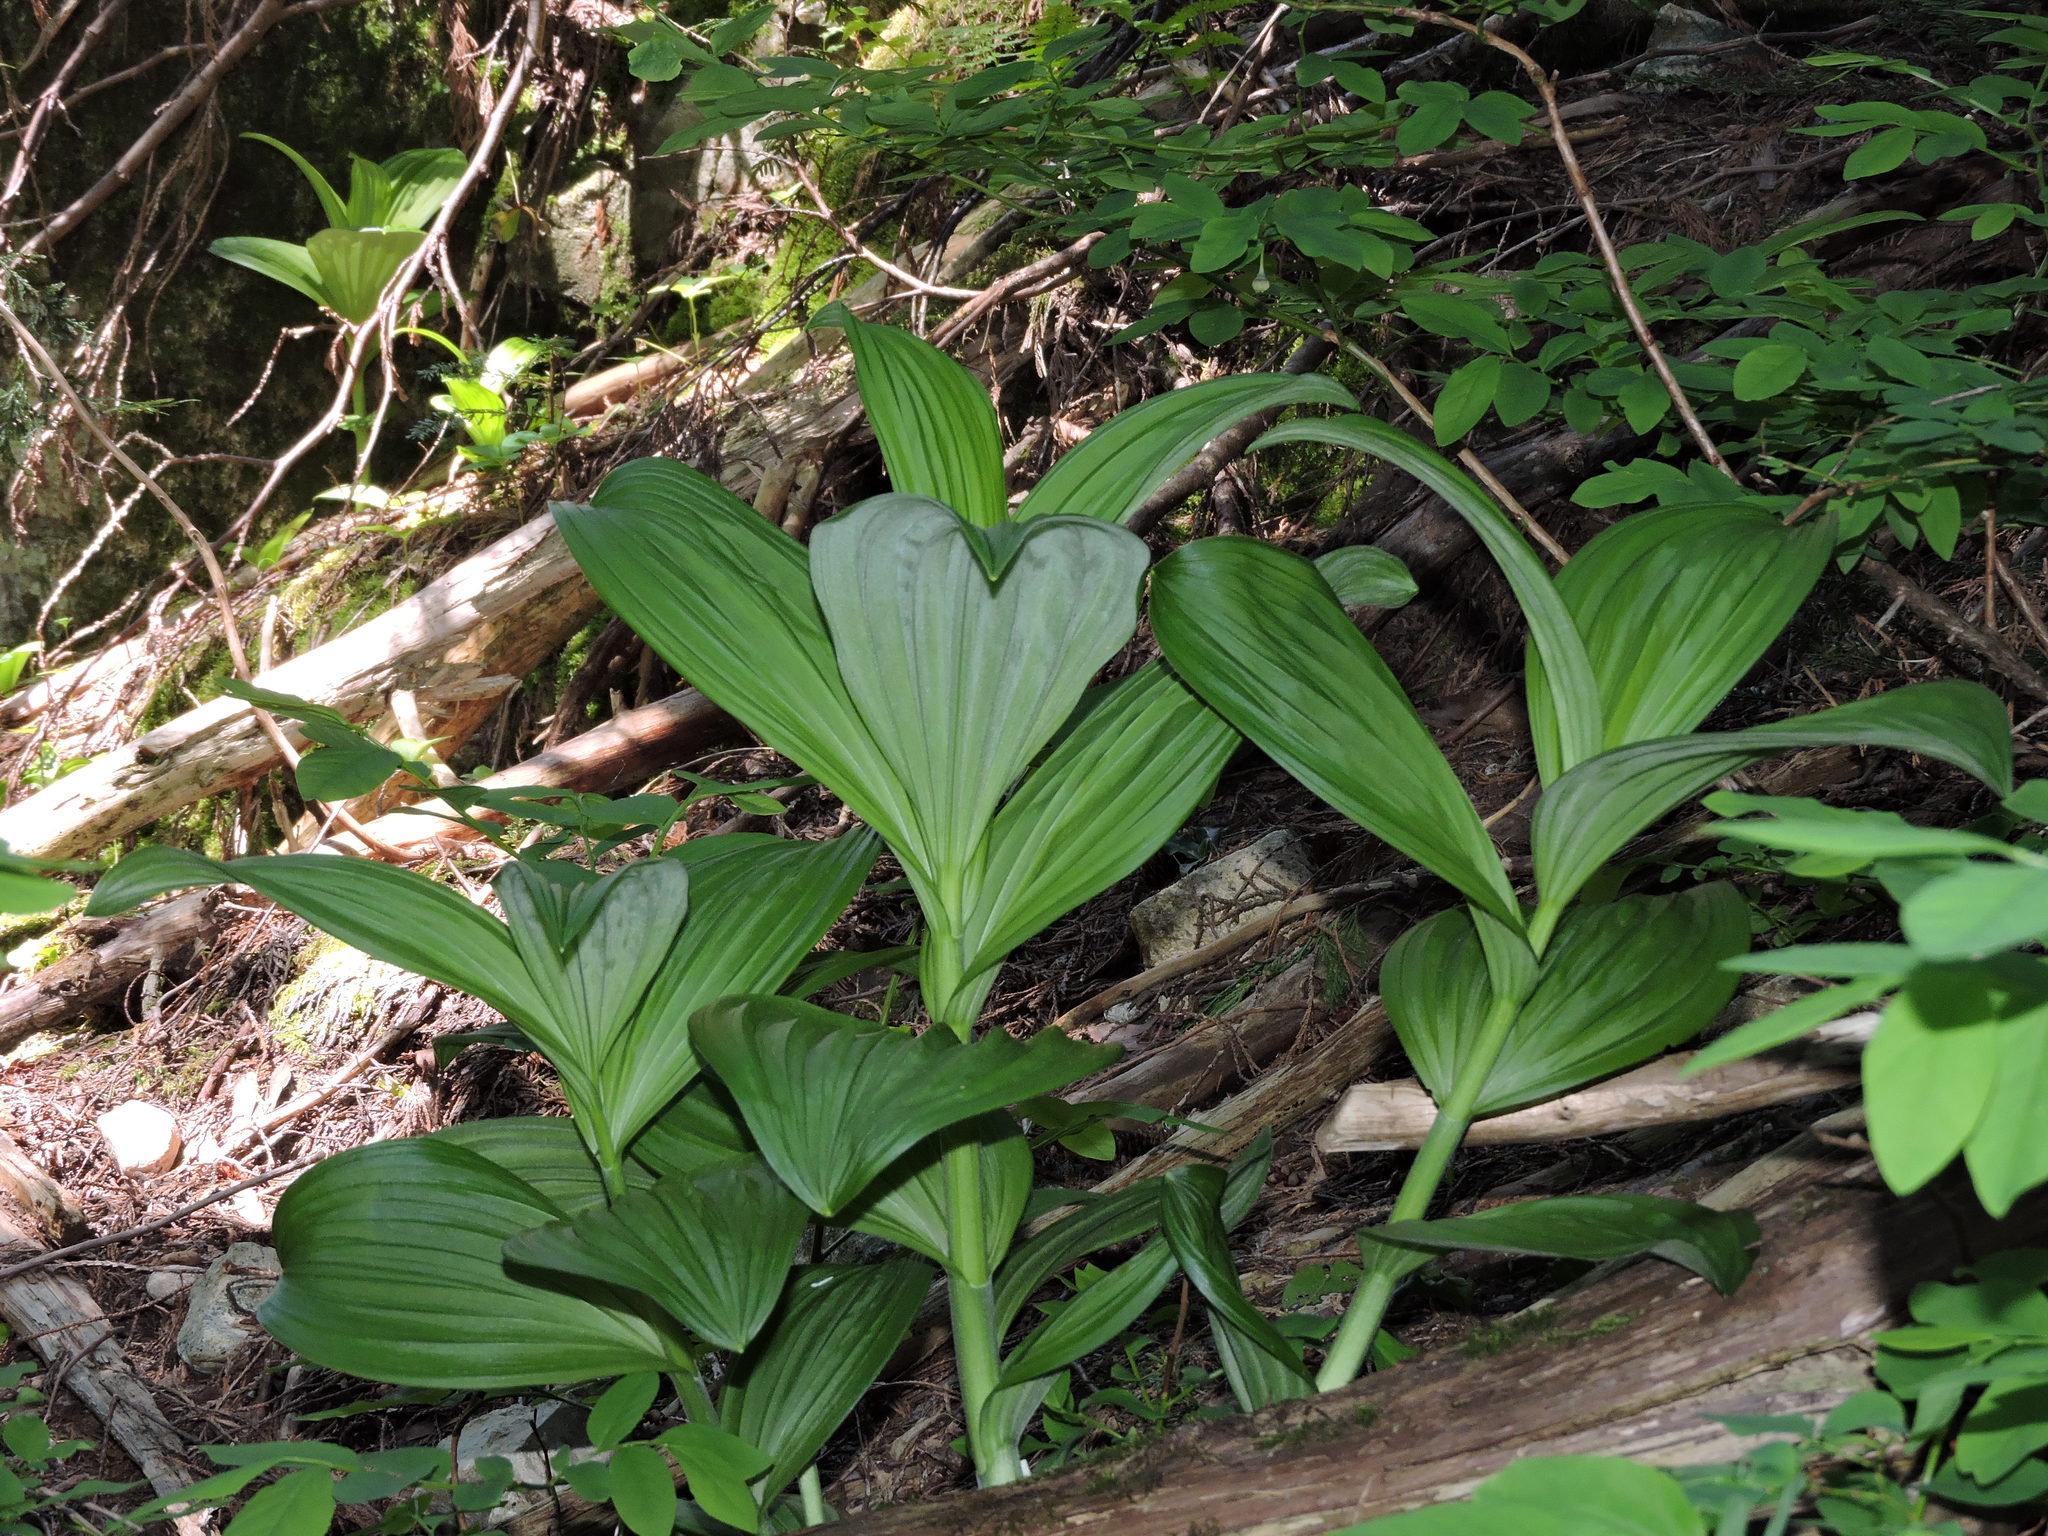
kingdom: Plantae
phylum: Tracheophyta
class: Liliopsida
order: Liliales
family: Melanthiaceae
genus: Veratrum
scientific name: Veratrum viride
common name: American false hellebore
